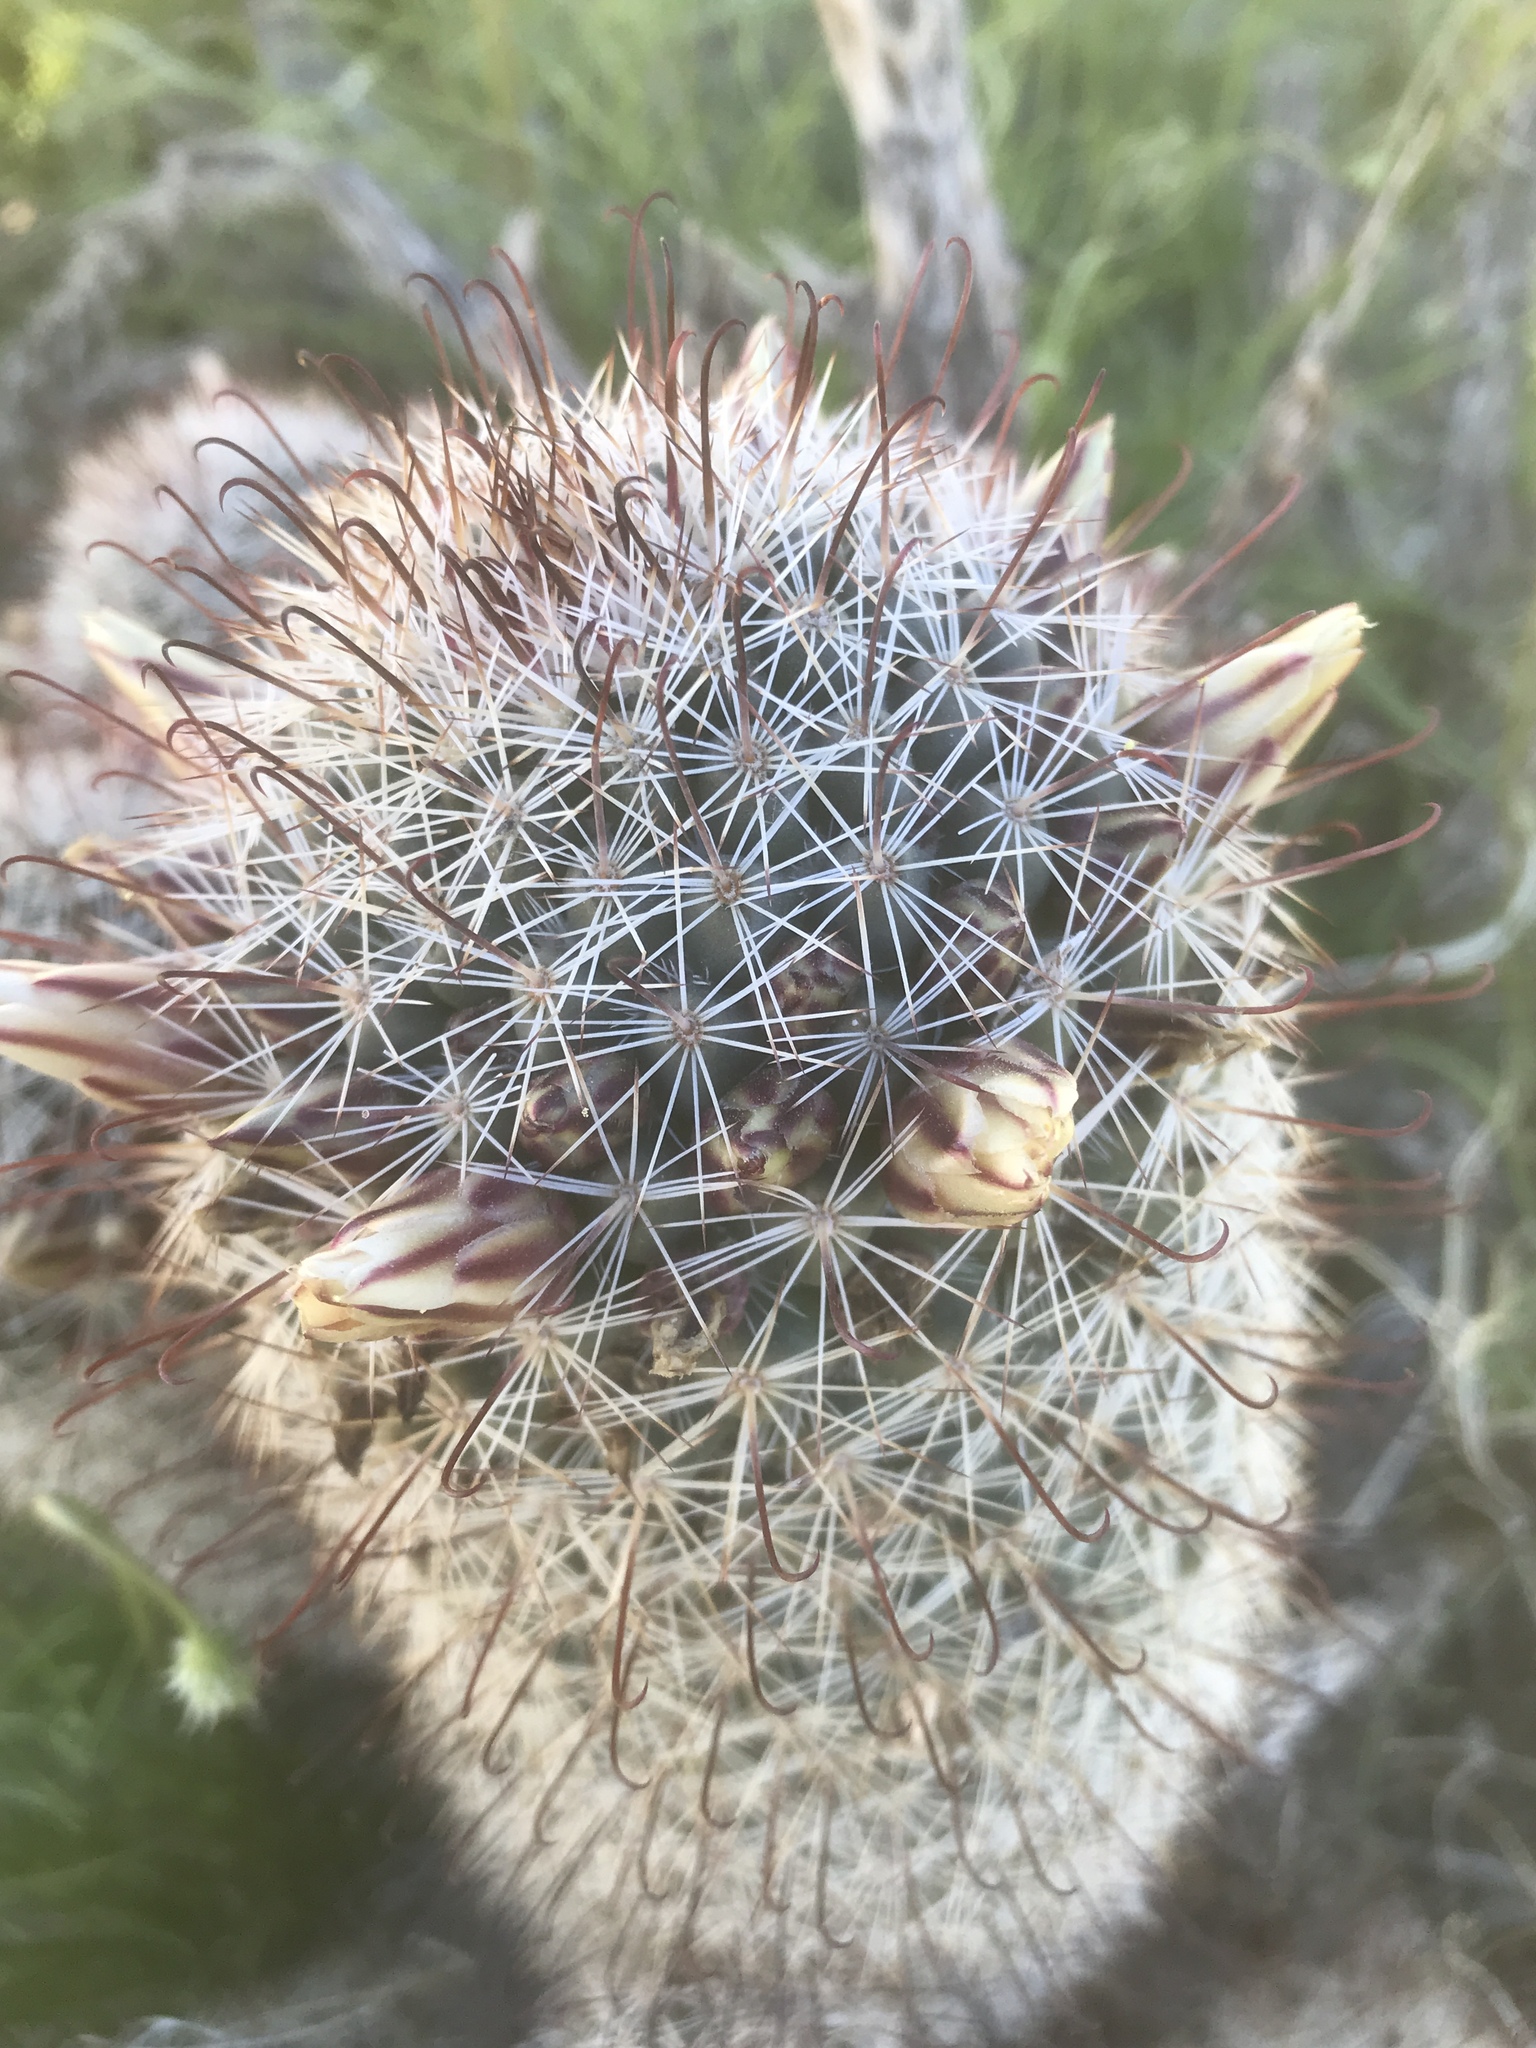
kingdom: Plantae
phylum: Tracheophyta
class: Magnoliopsida
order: Caryophyllales
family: Cactaceae
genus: Cochemiea
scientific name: Cochemiea dioica
